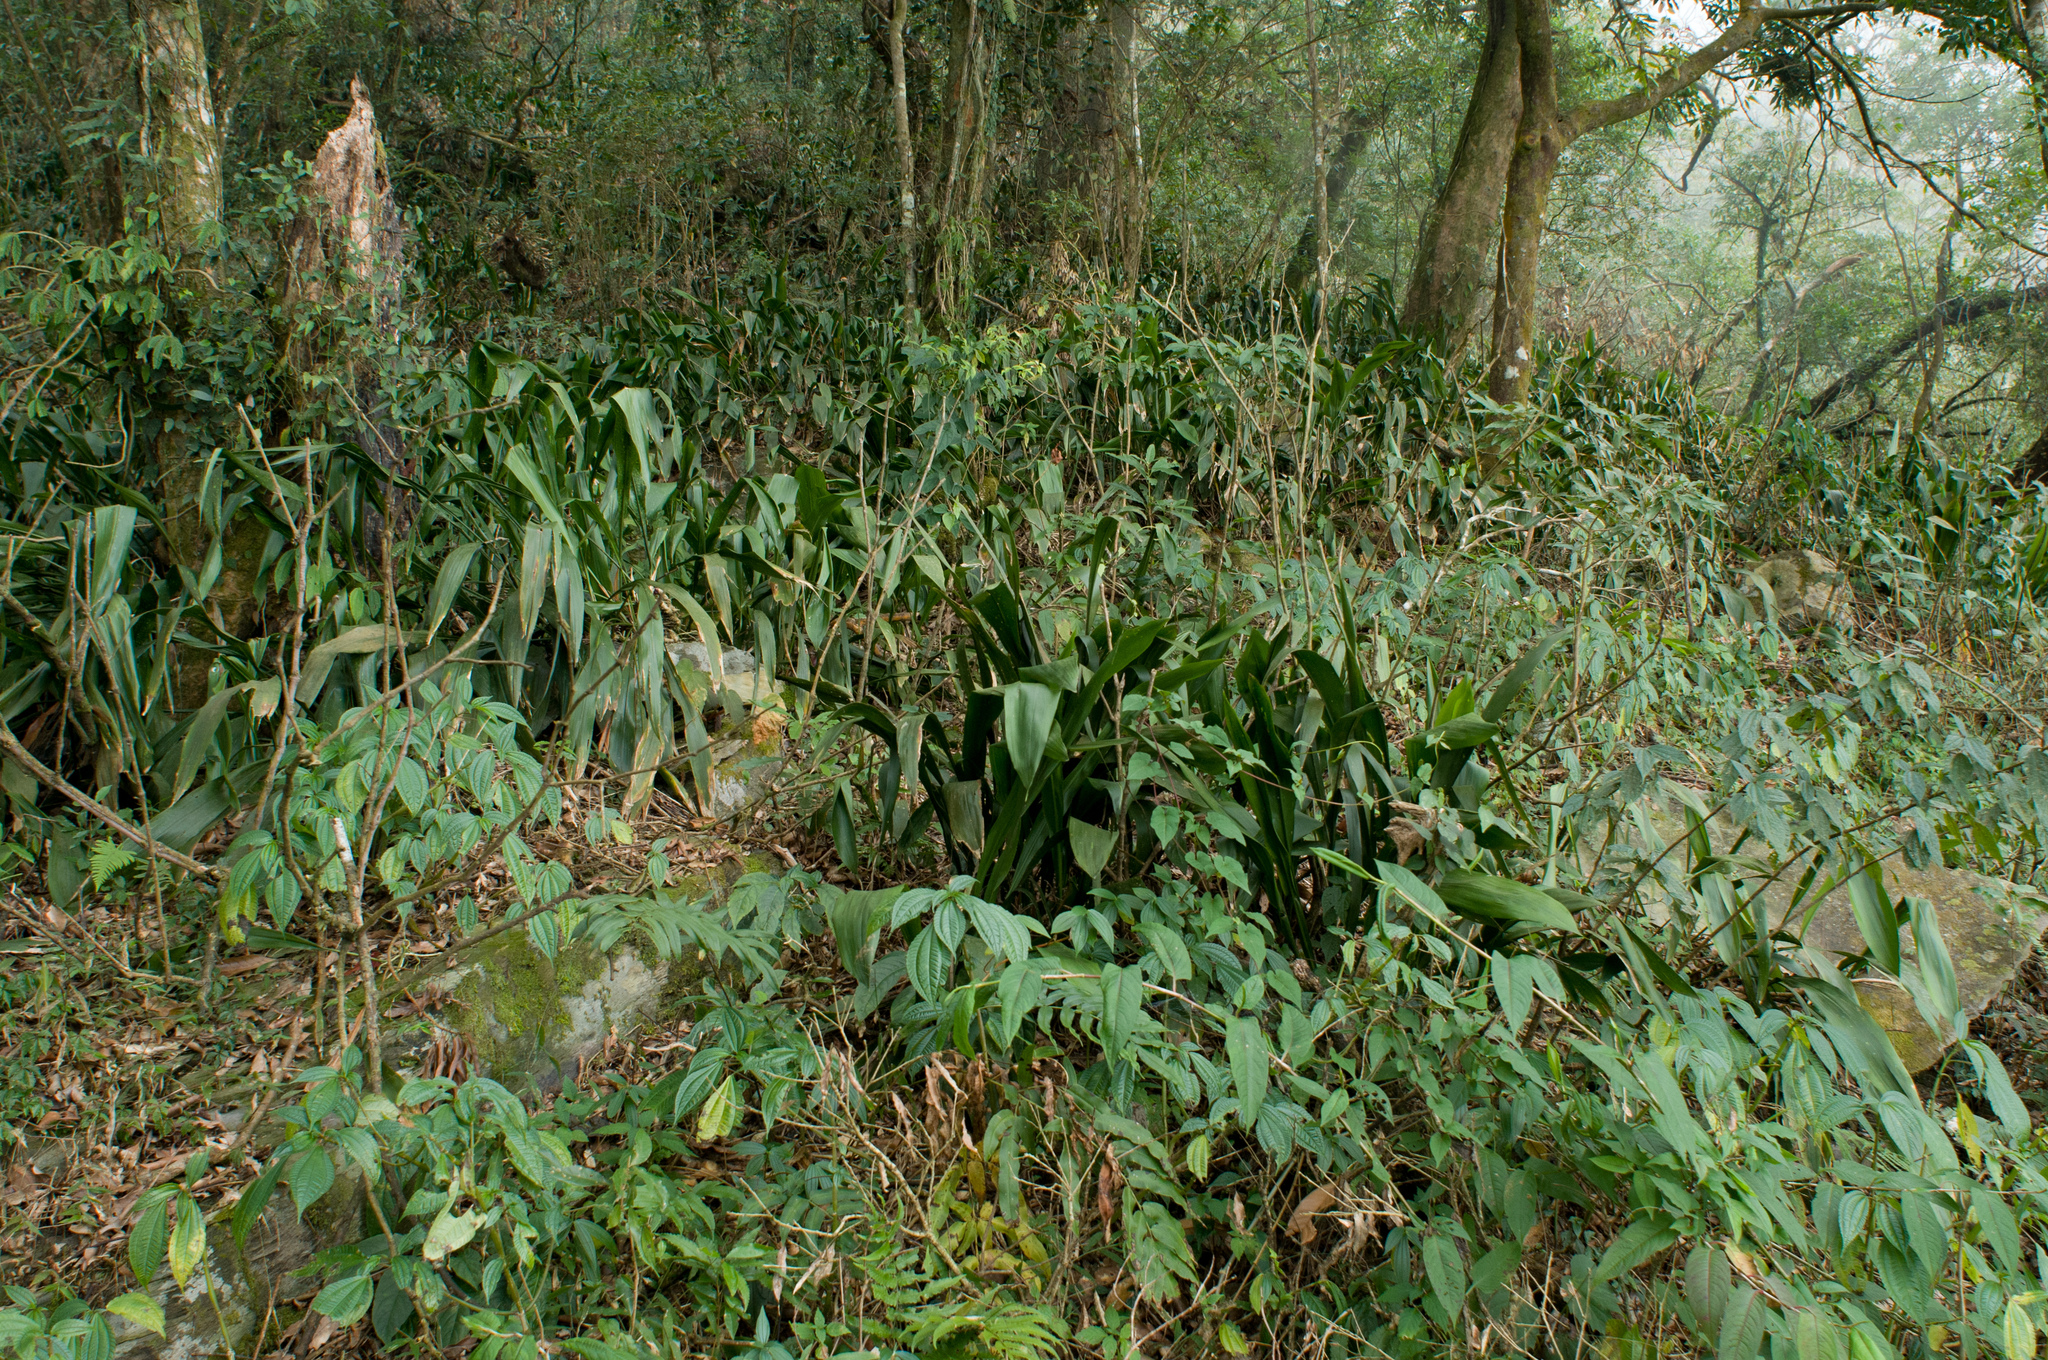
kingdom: Plantae
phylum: Tracheophyta
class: Liliopsida
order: Asparagales
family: Asparagaceae
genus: Aspidistra
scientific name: Aspidistra attenuata
